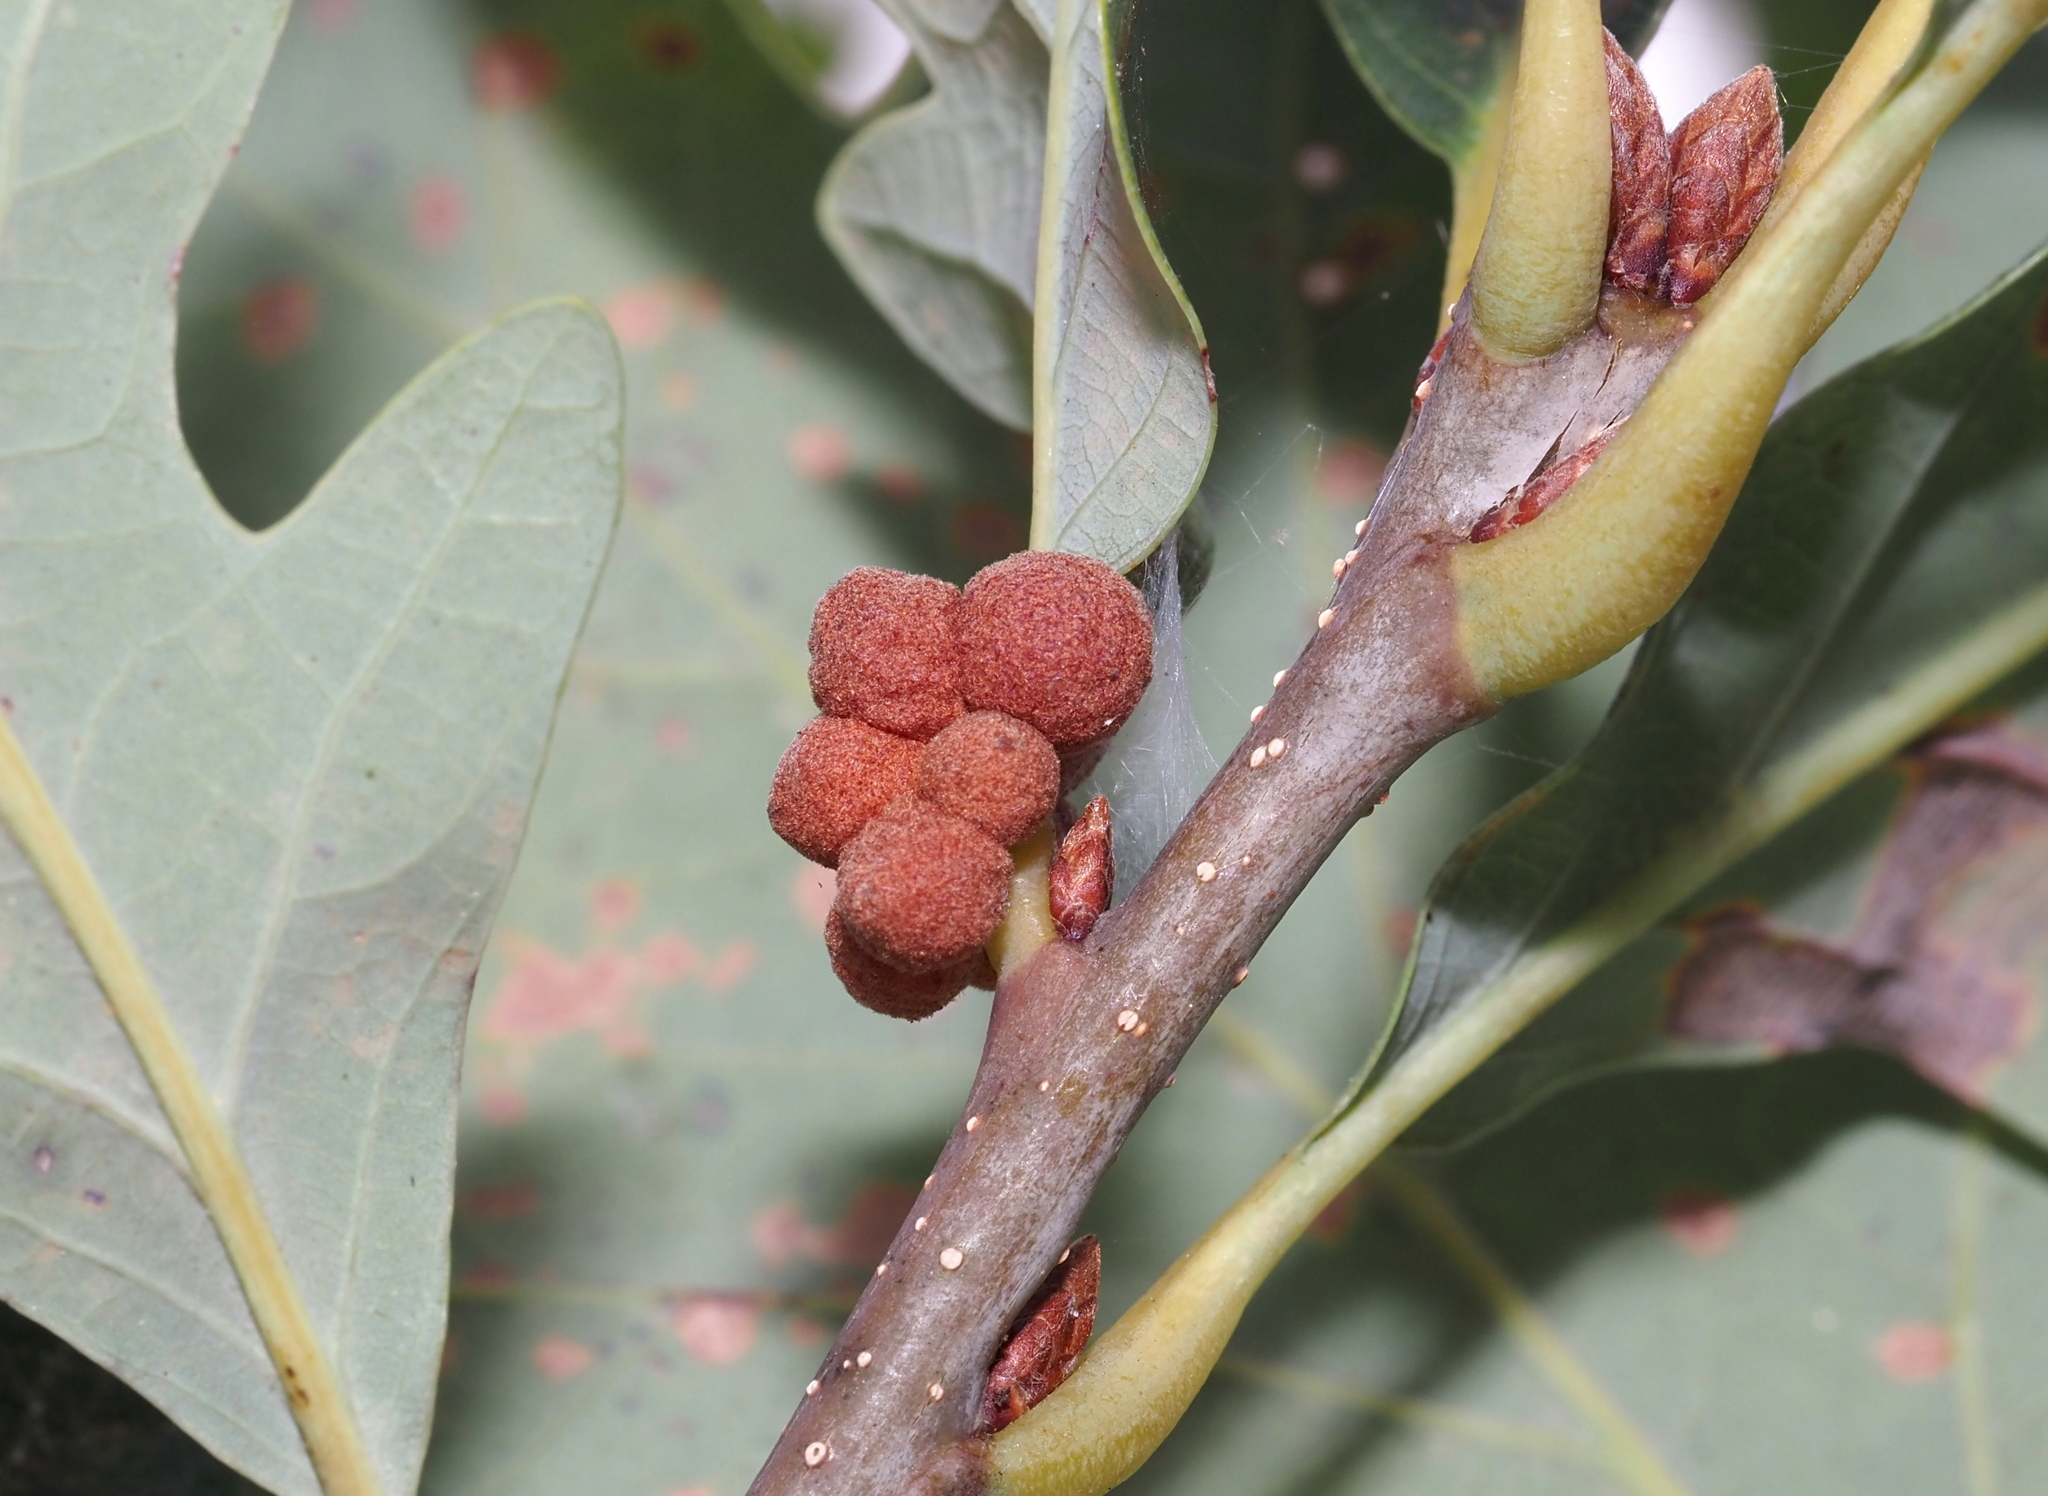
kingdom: Animalia
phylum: Arthropoda
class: Insecta
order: Hymenoptera
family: Cynipidae
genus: Andricus
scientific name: Andricus
